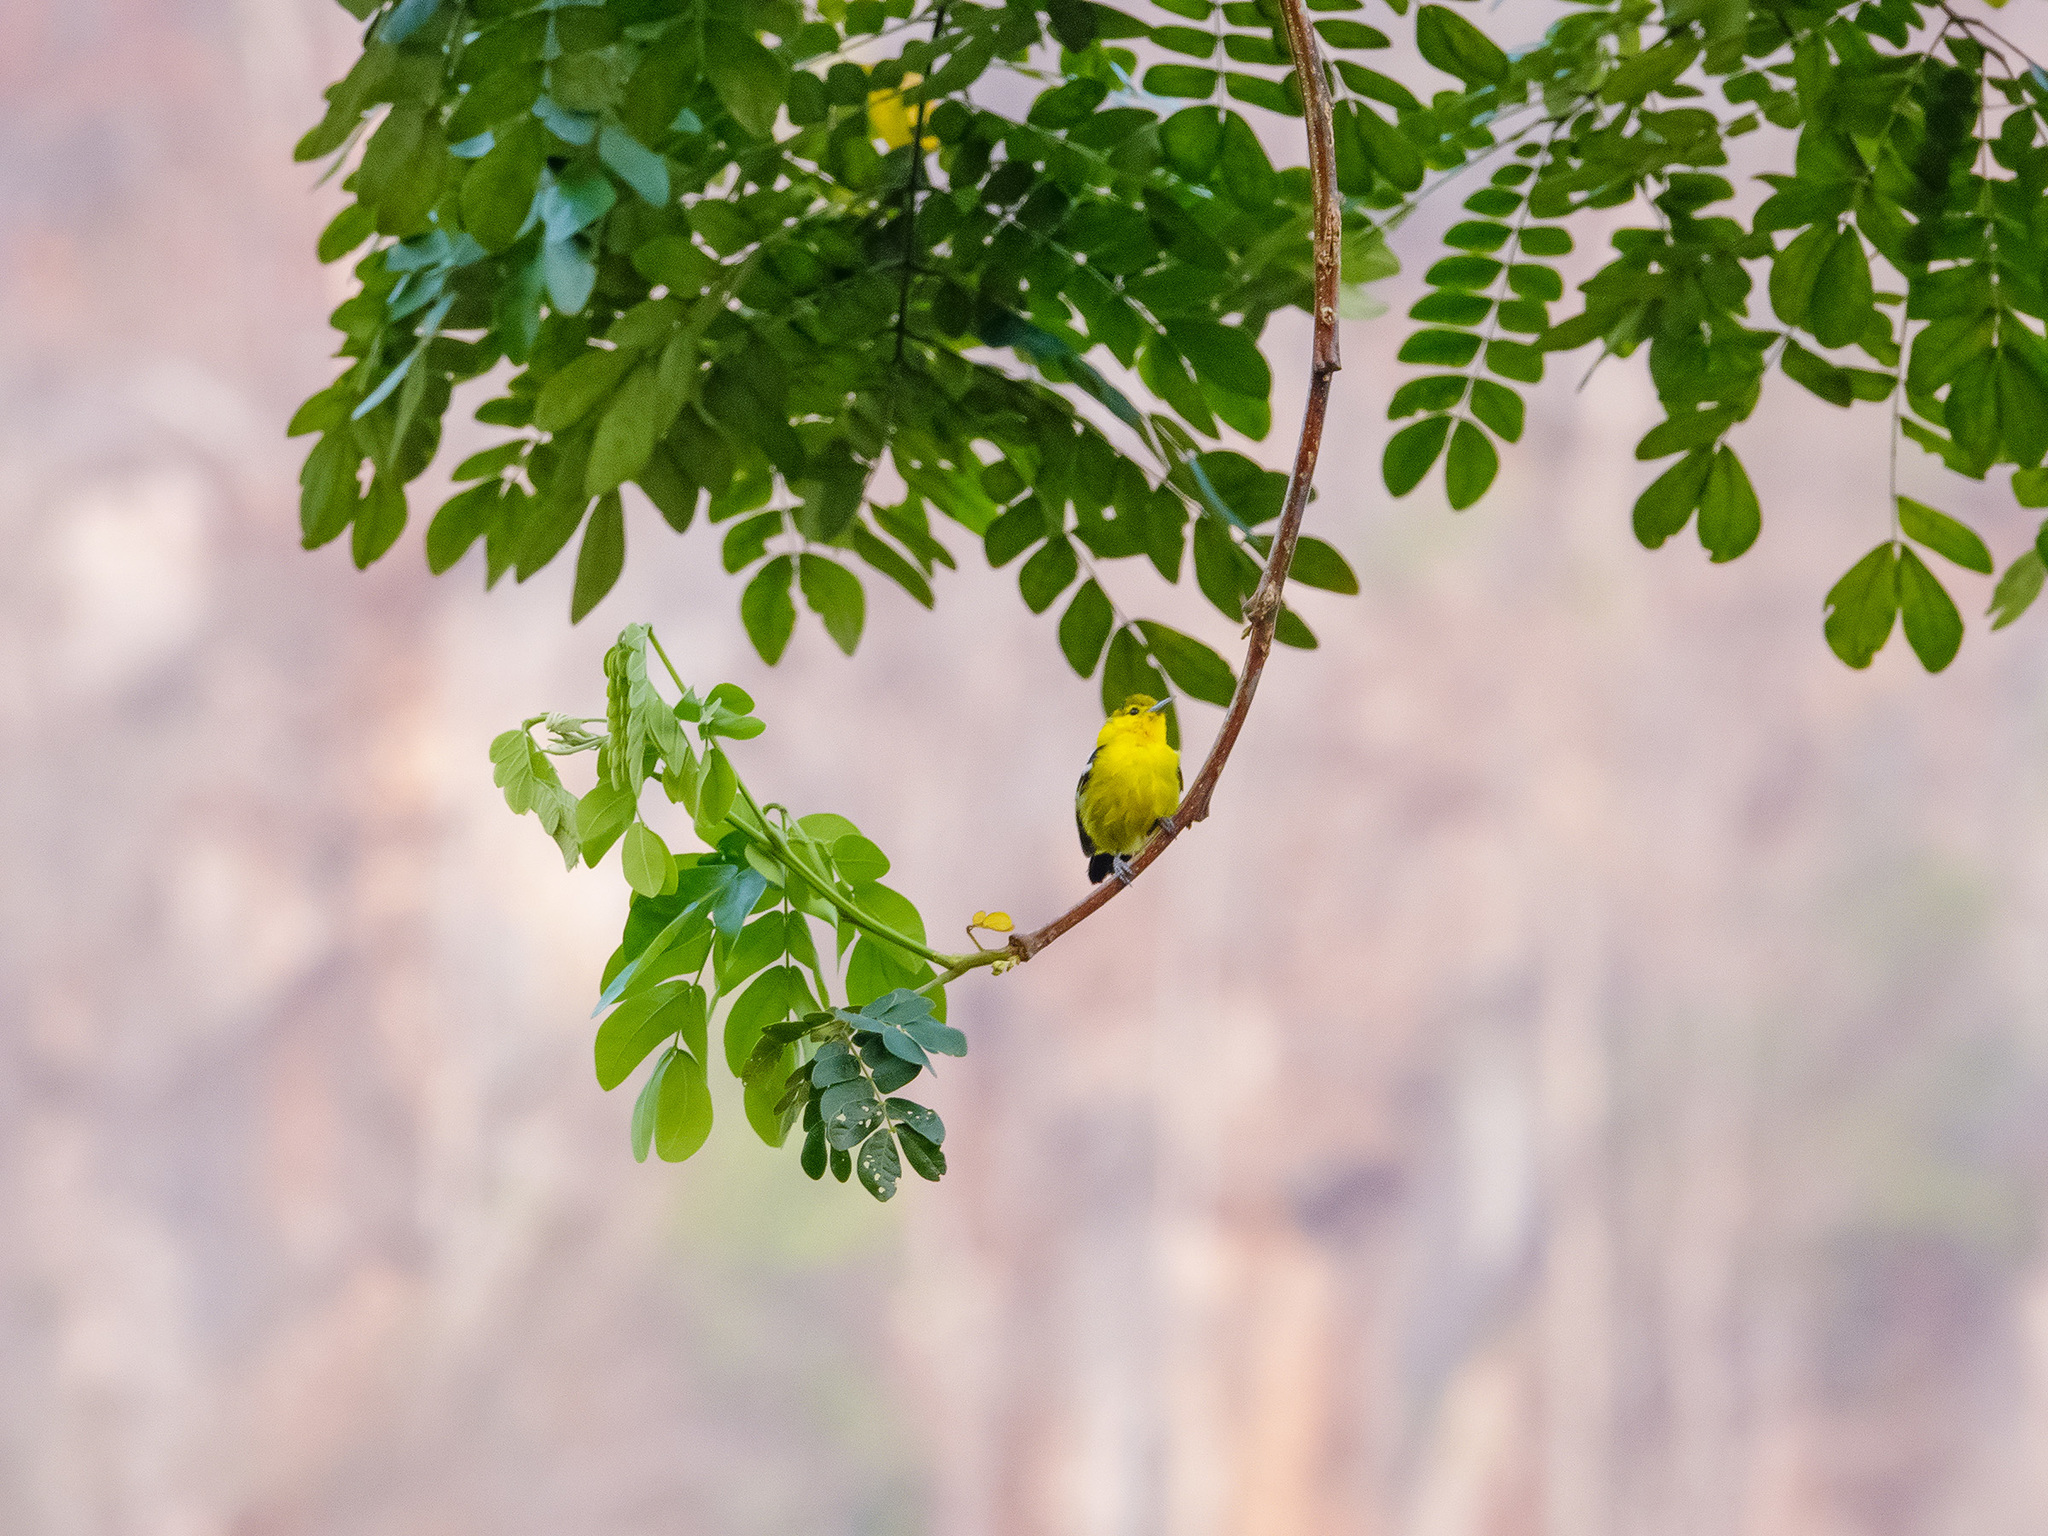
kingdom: Animalia
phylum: Chordata
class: Aves
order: Passeriformes
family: Aegithinidae
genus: Aegithina
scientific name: Aegithina tiphia
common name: Common iora
